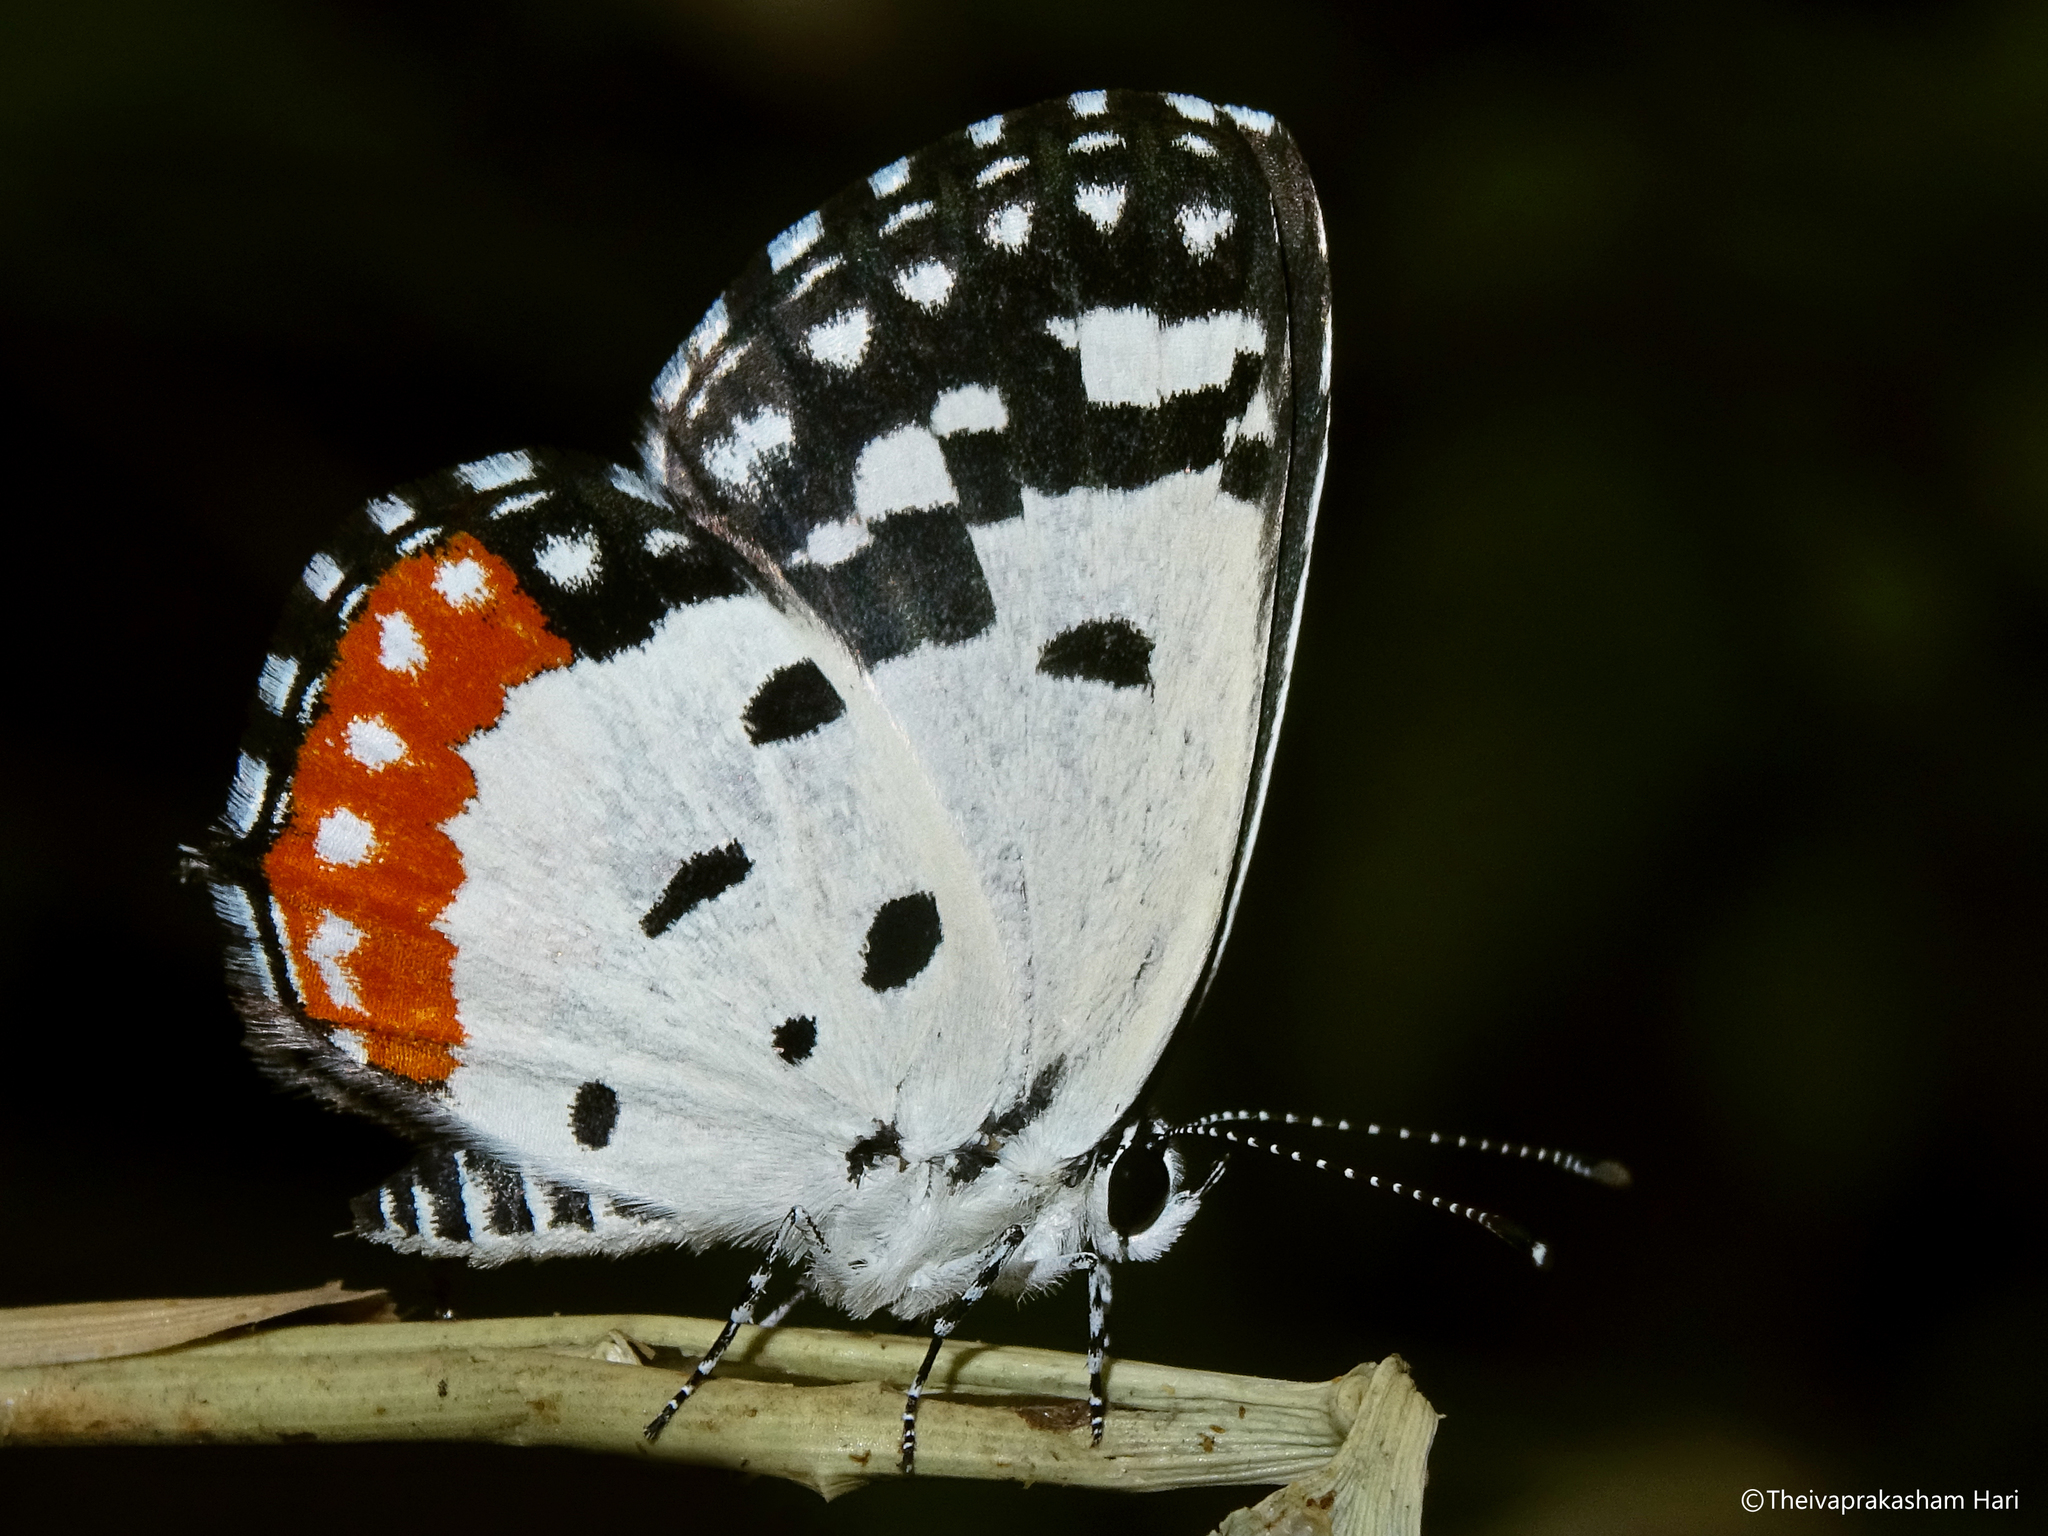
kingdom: Animalia
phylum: Arthropoda
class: Insecta
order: Lepidoptera
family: Lycaenidae
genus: Talicada
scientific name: Talicada nyseus
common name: Red pierrot
